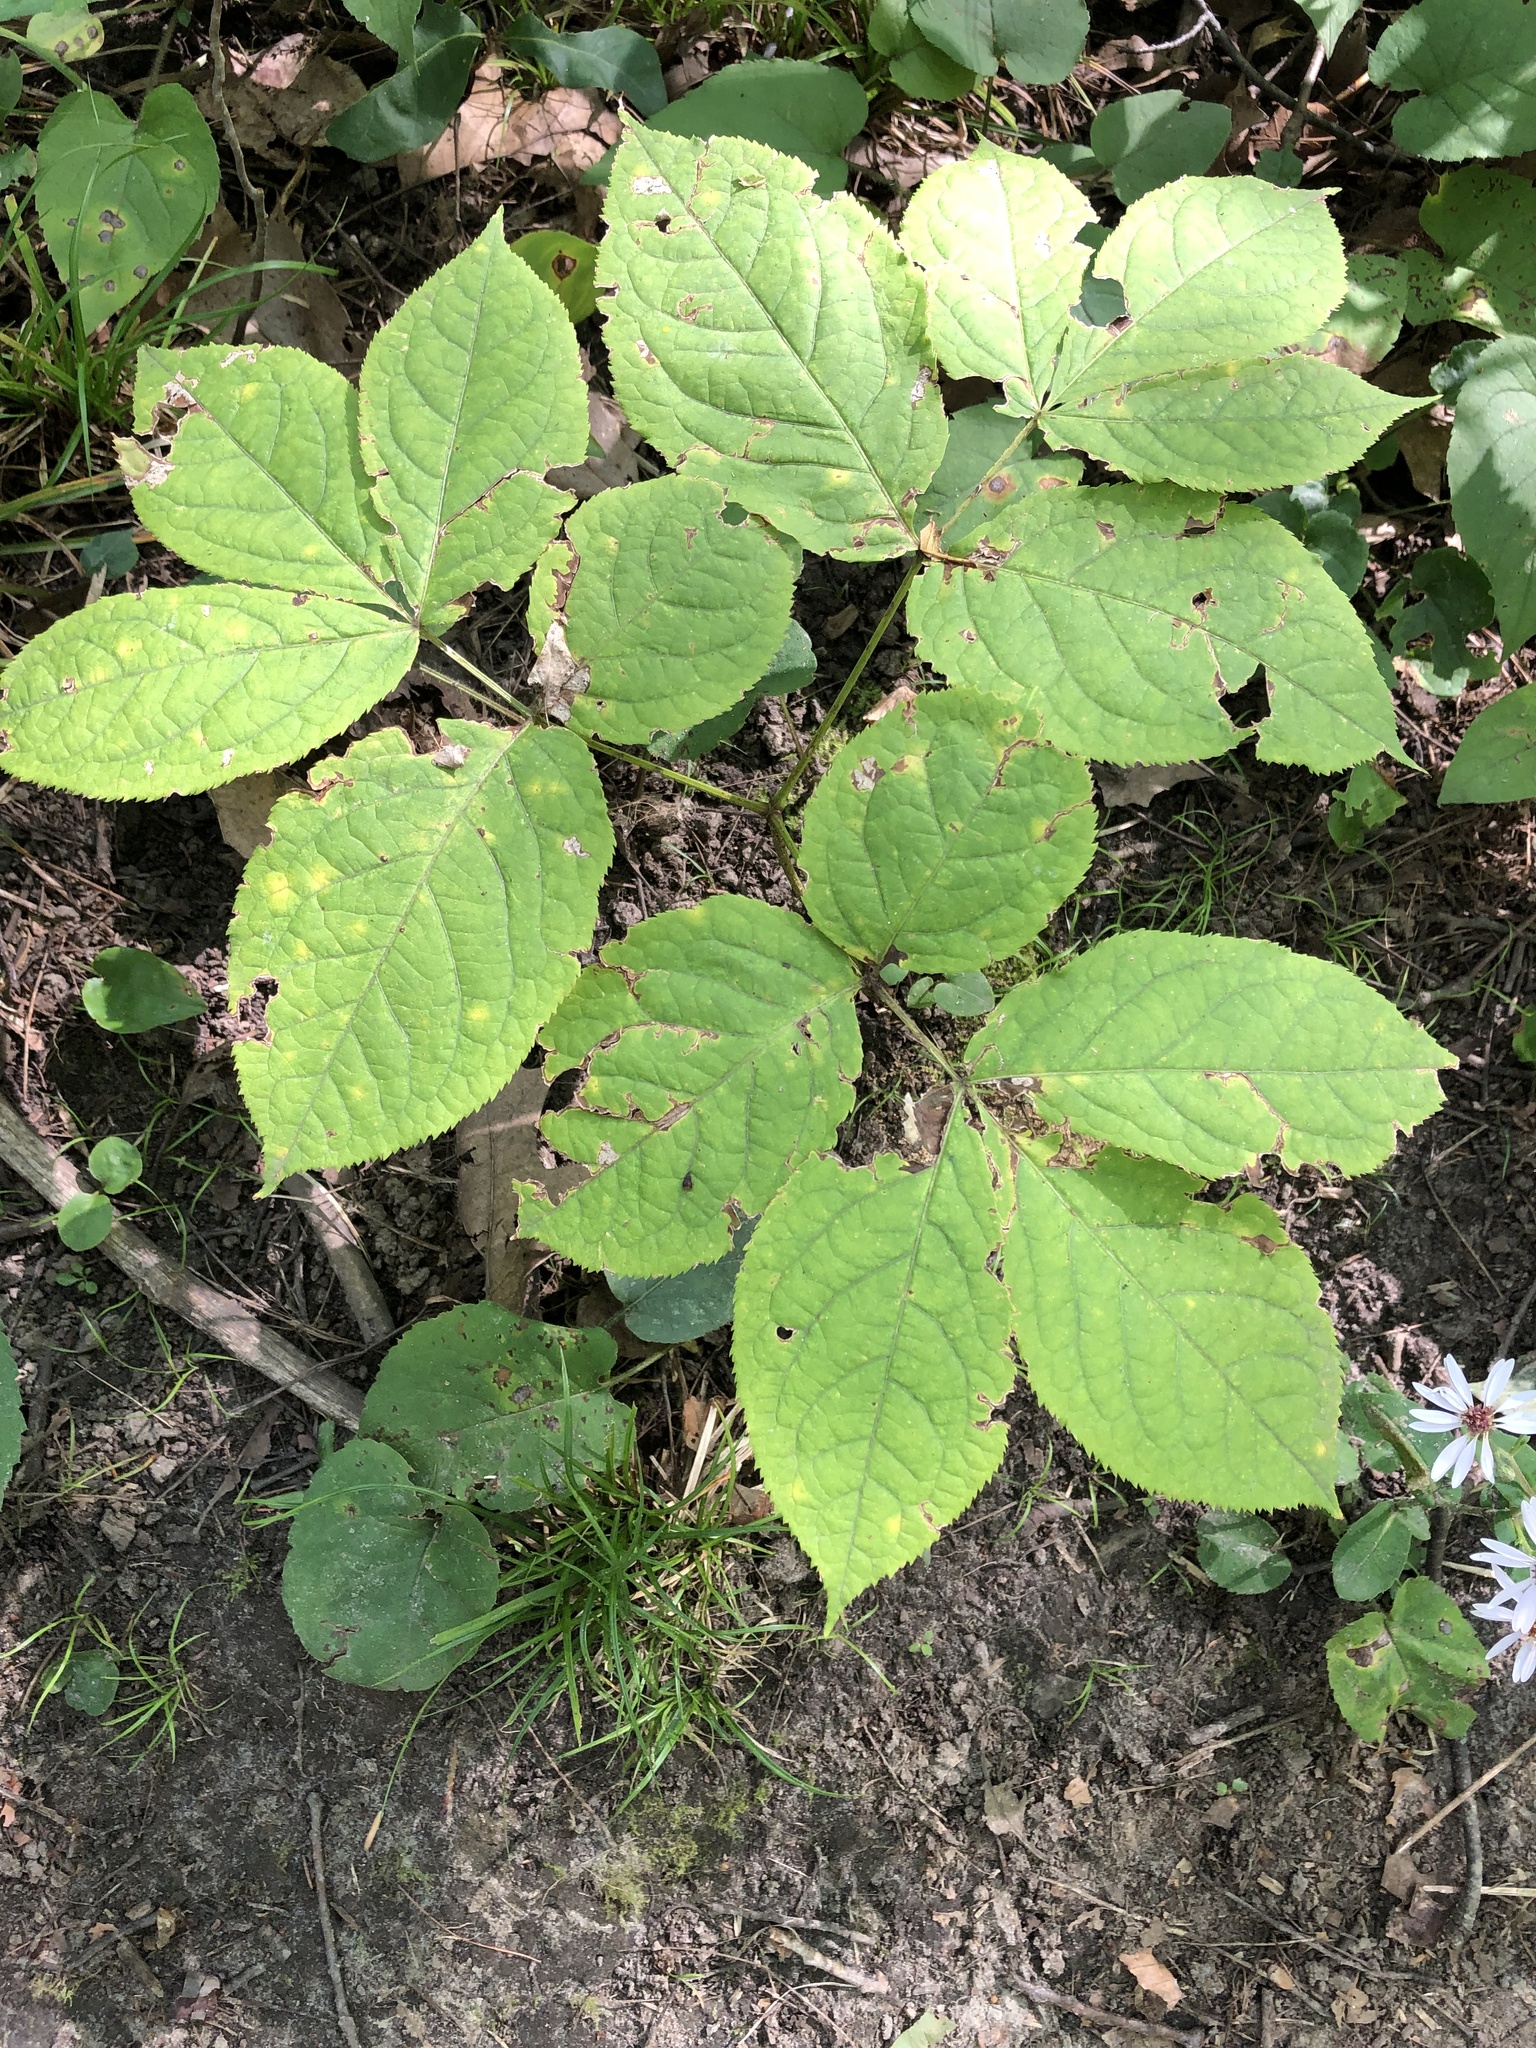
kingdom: Plantae
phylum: Tracheophyta
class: Magnoliopsida
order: Apiales
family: Araliaceae
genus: Aralia
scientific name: Aralia nudicaulis
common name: Wild sarsaparilla
